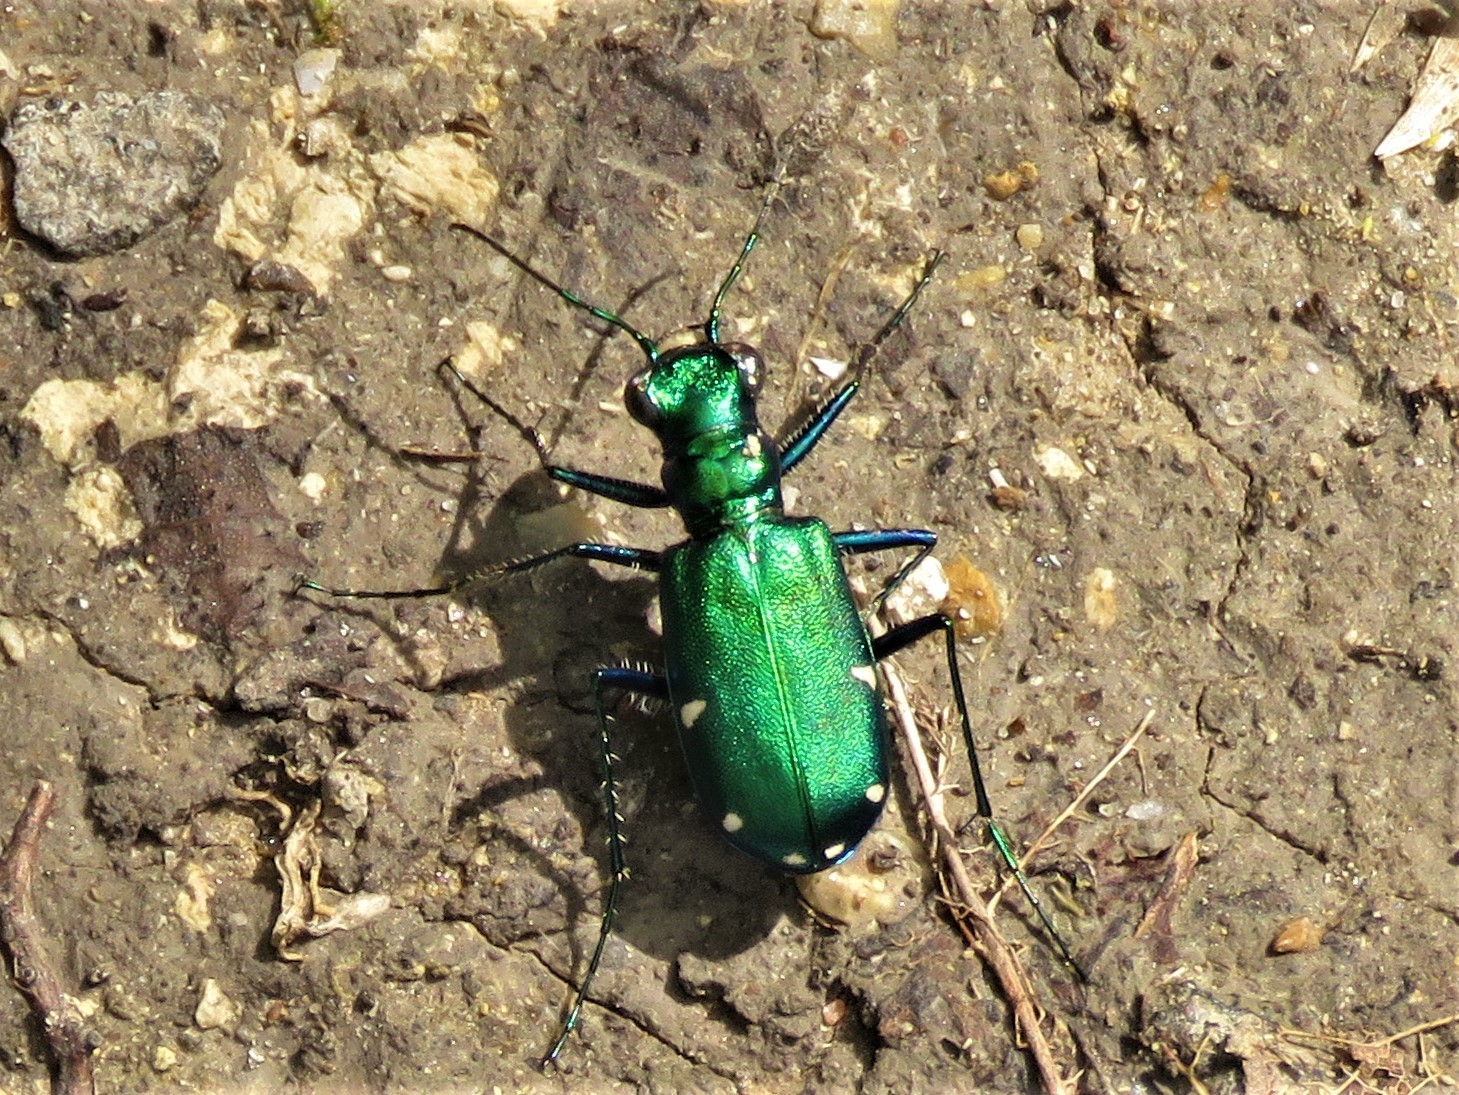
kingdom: Animalia
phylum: Arthropoda
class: Insecta
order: Coleoptera
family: Carabidae
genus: Cicindela
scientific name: Cicindela sexguttata
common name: Six-spotted tiger beetle
